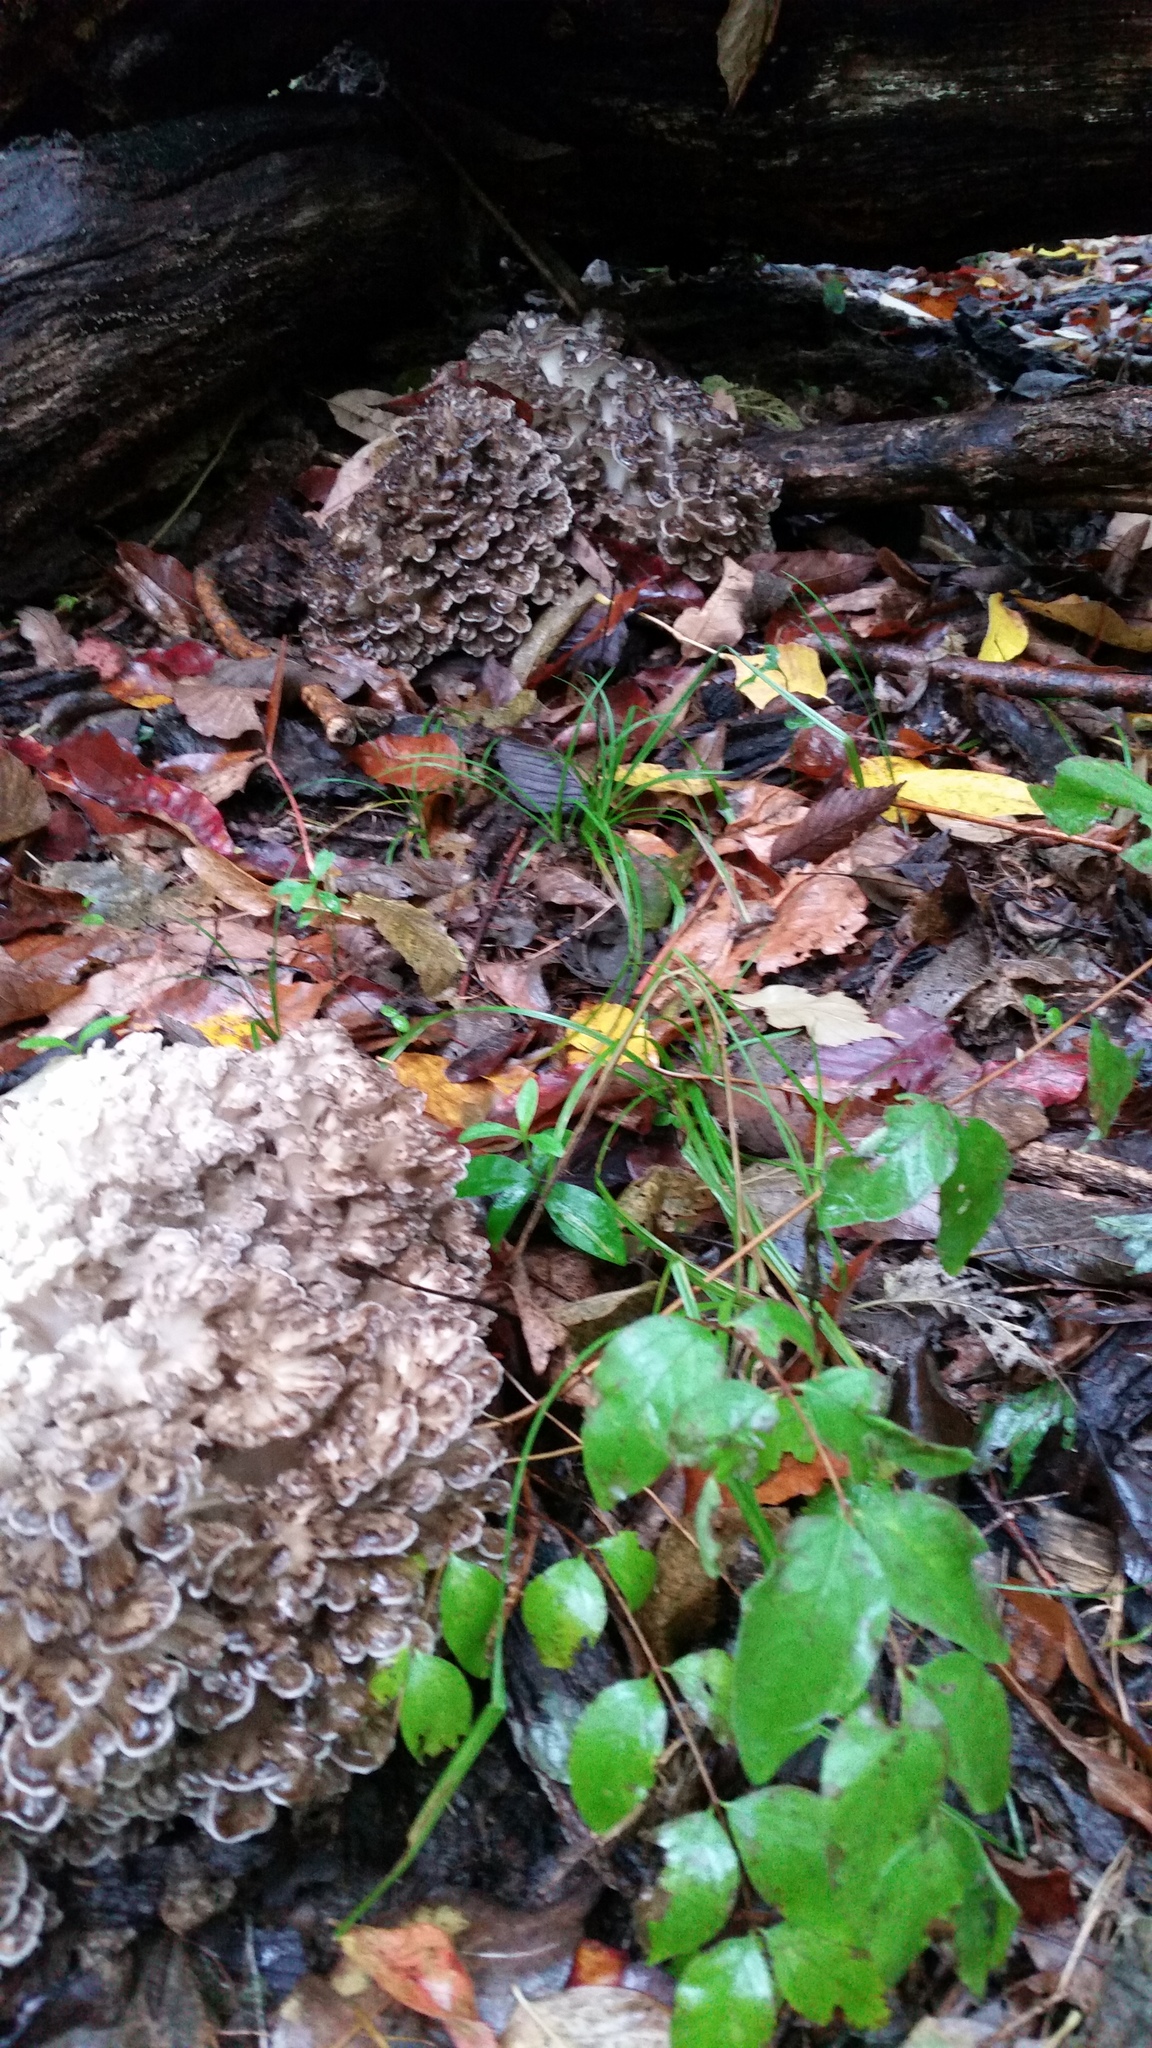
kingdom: Fungi
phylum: Basidiomycota
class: Agaricomycetes
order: Polyporales
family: Grifolaceae
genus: Grifola
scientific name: Grifola frondosa
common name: Hen of the woods
